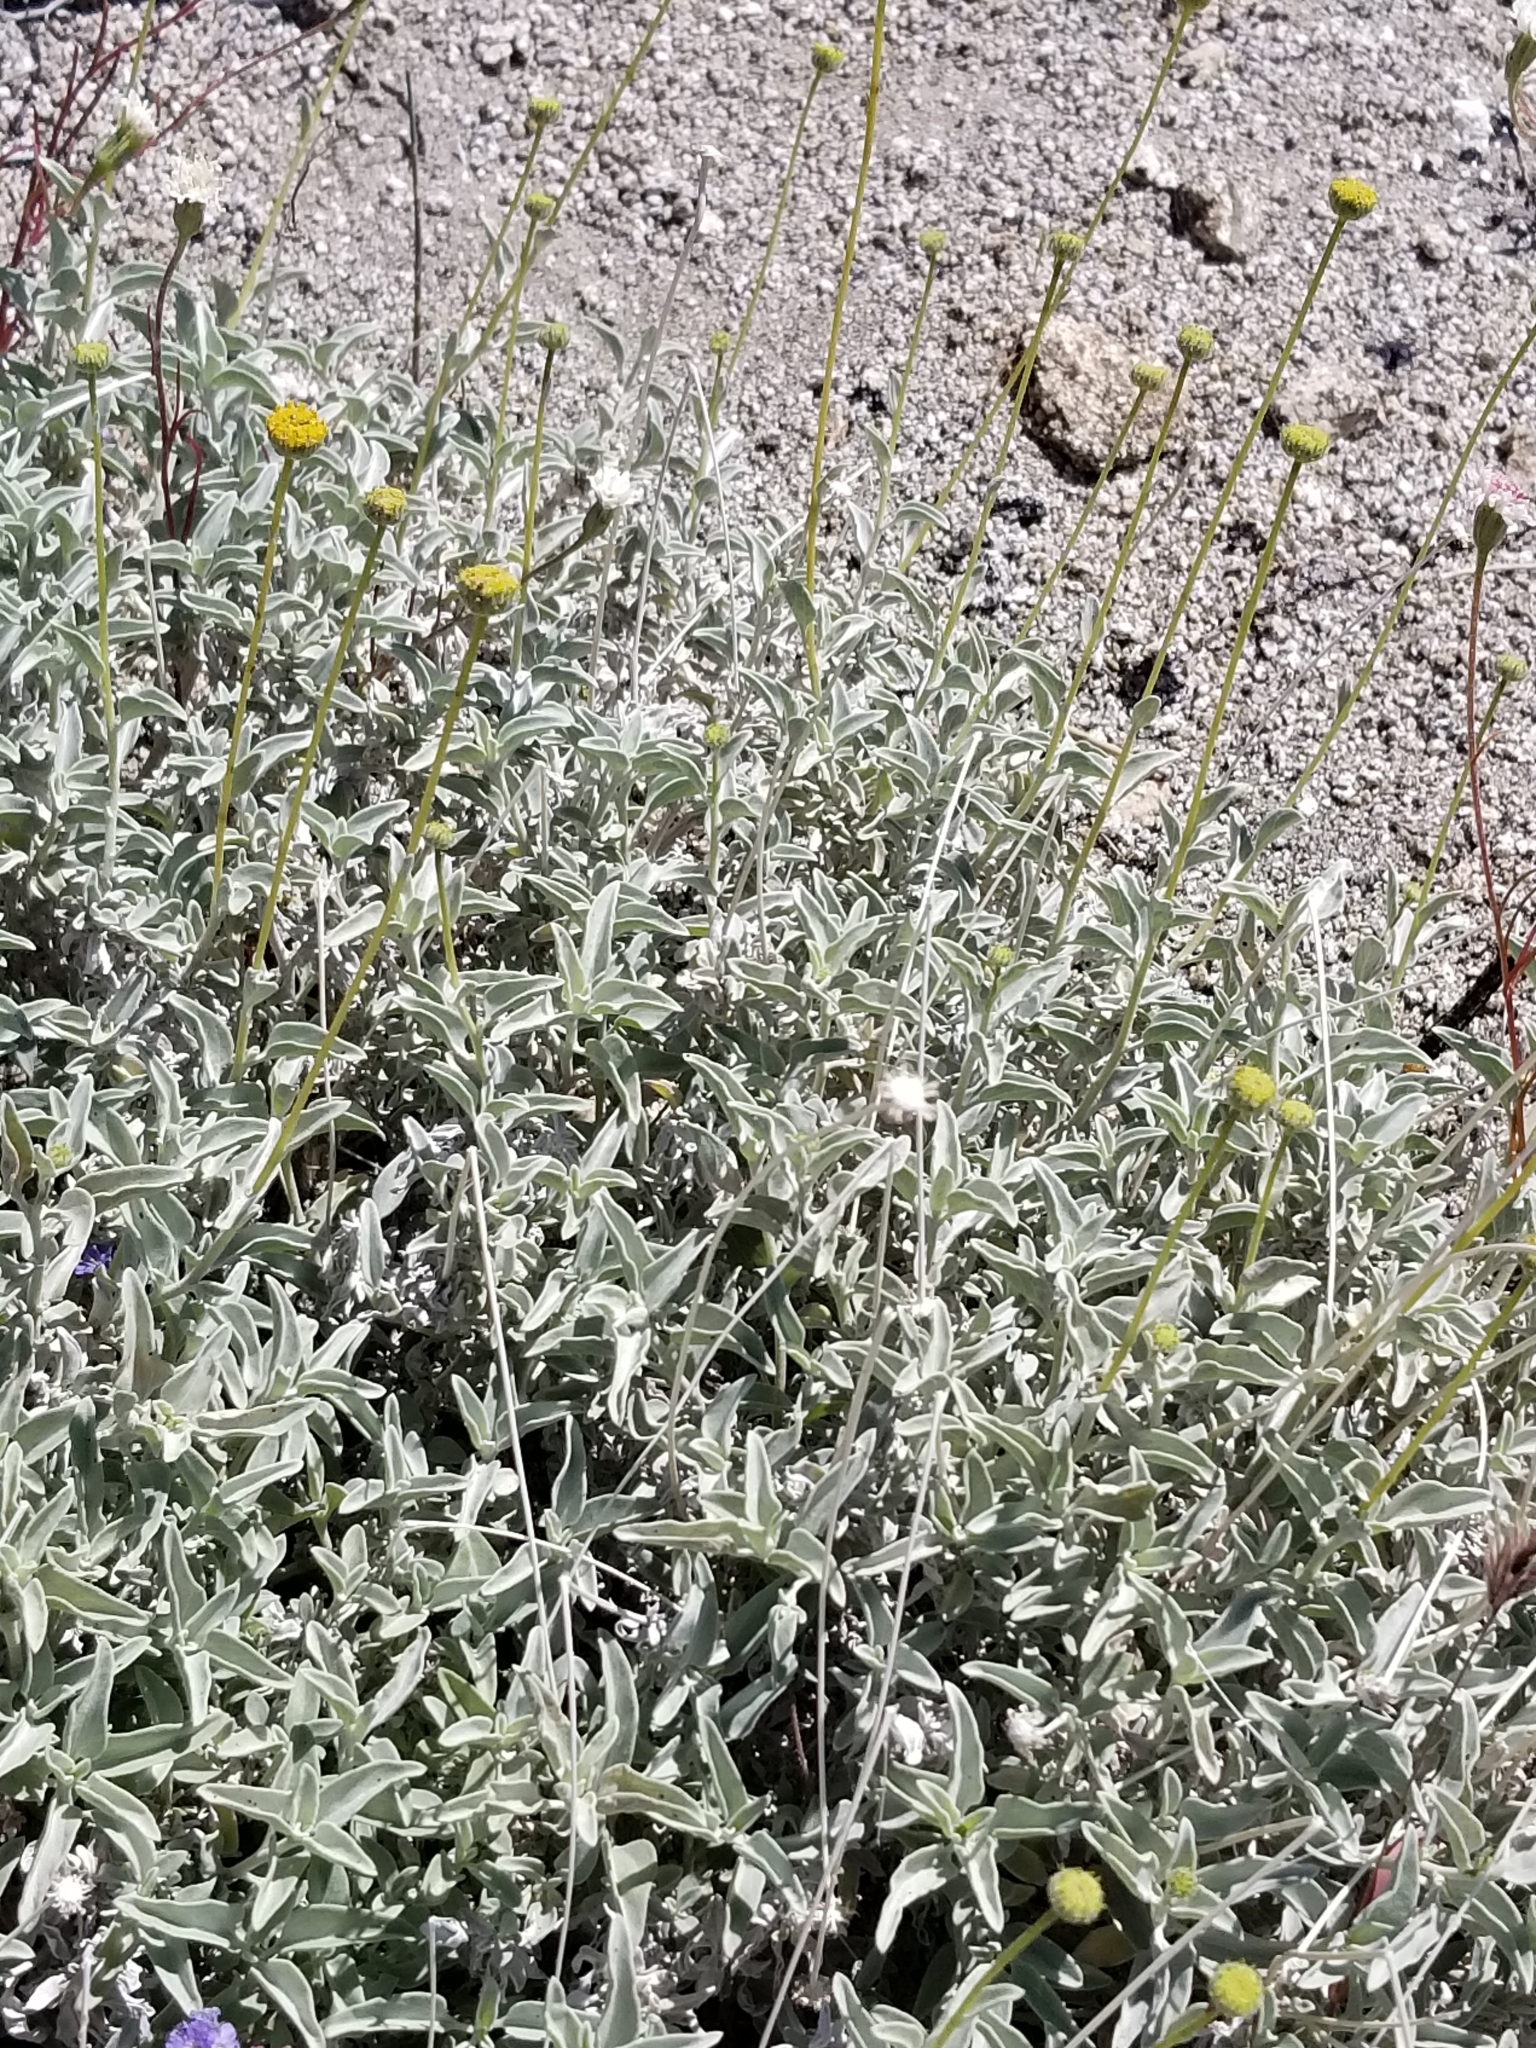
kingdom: Plantae
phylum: Tracheophyta
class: Magnoliopsida
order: Asterales
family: Asteraceae
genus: Encelia
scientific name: Encelia actoni
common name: Acton encelia
